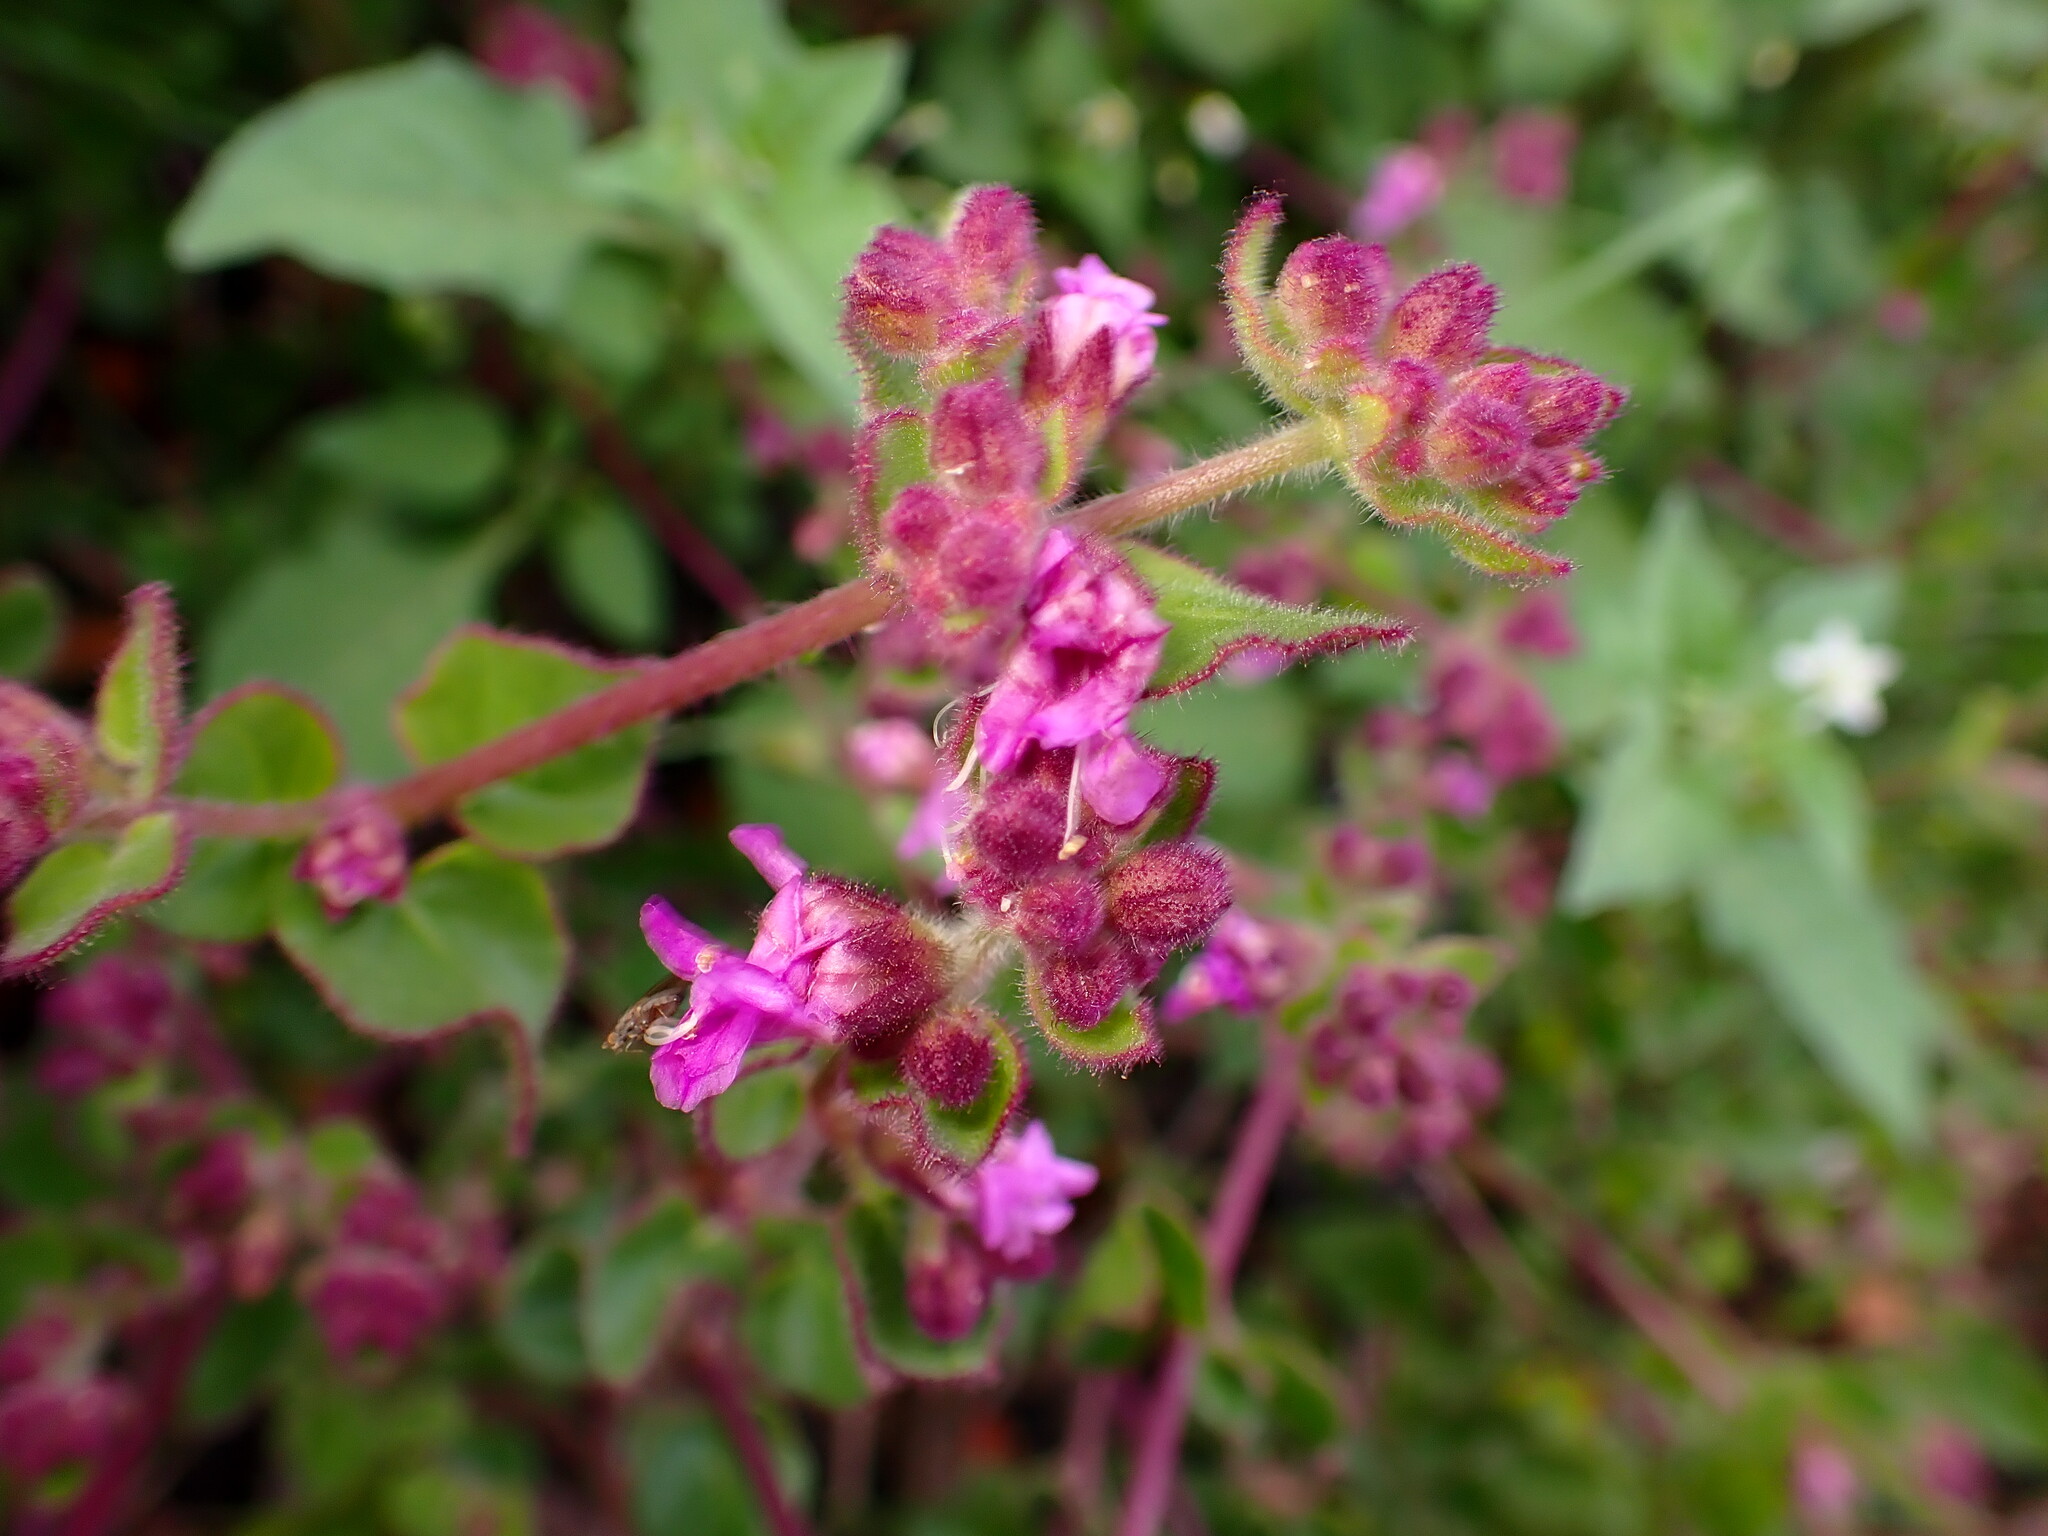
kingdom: Plantae
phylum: Tracheophyta
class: Magnoliopsida
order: Caryophyllales
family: Nyctaginaceae
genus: Mirabilis
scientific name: Mirabilis laevis
